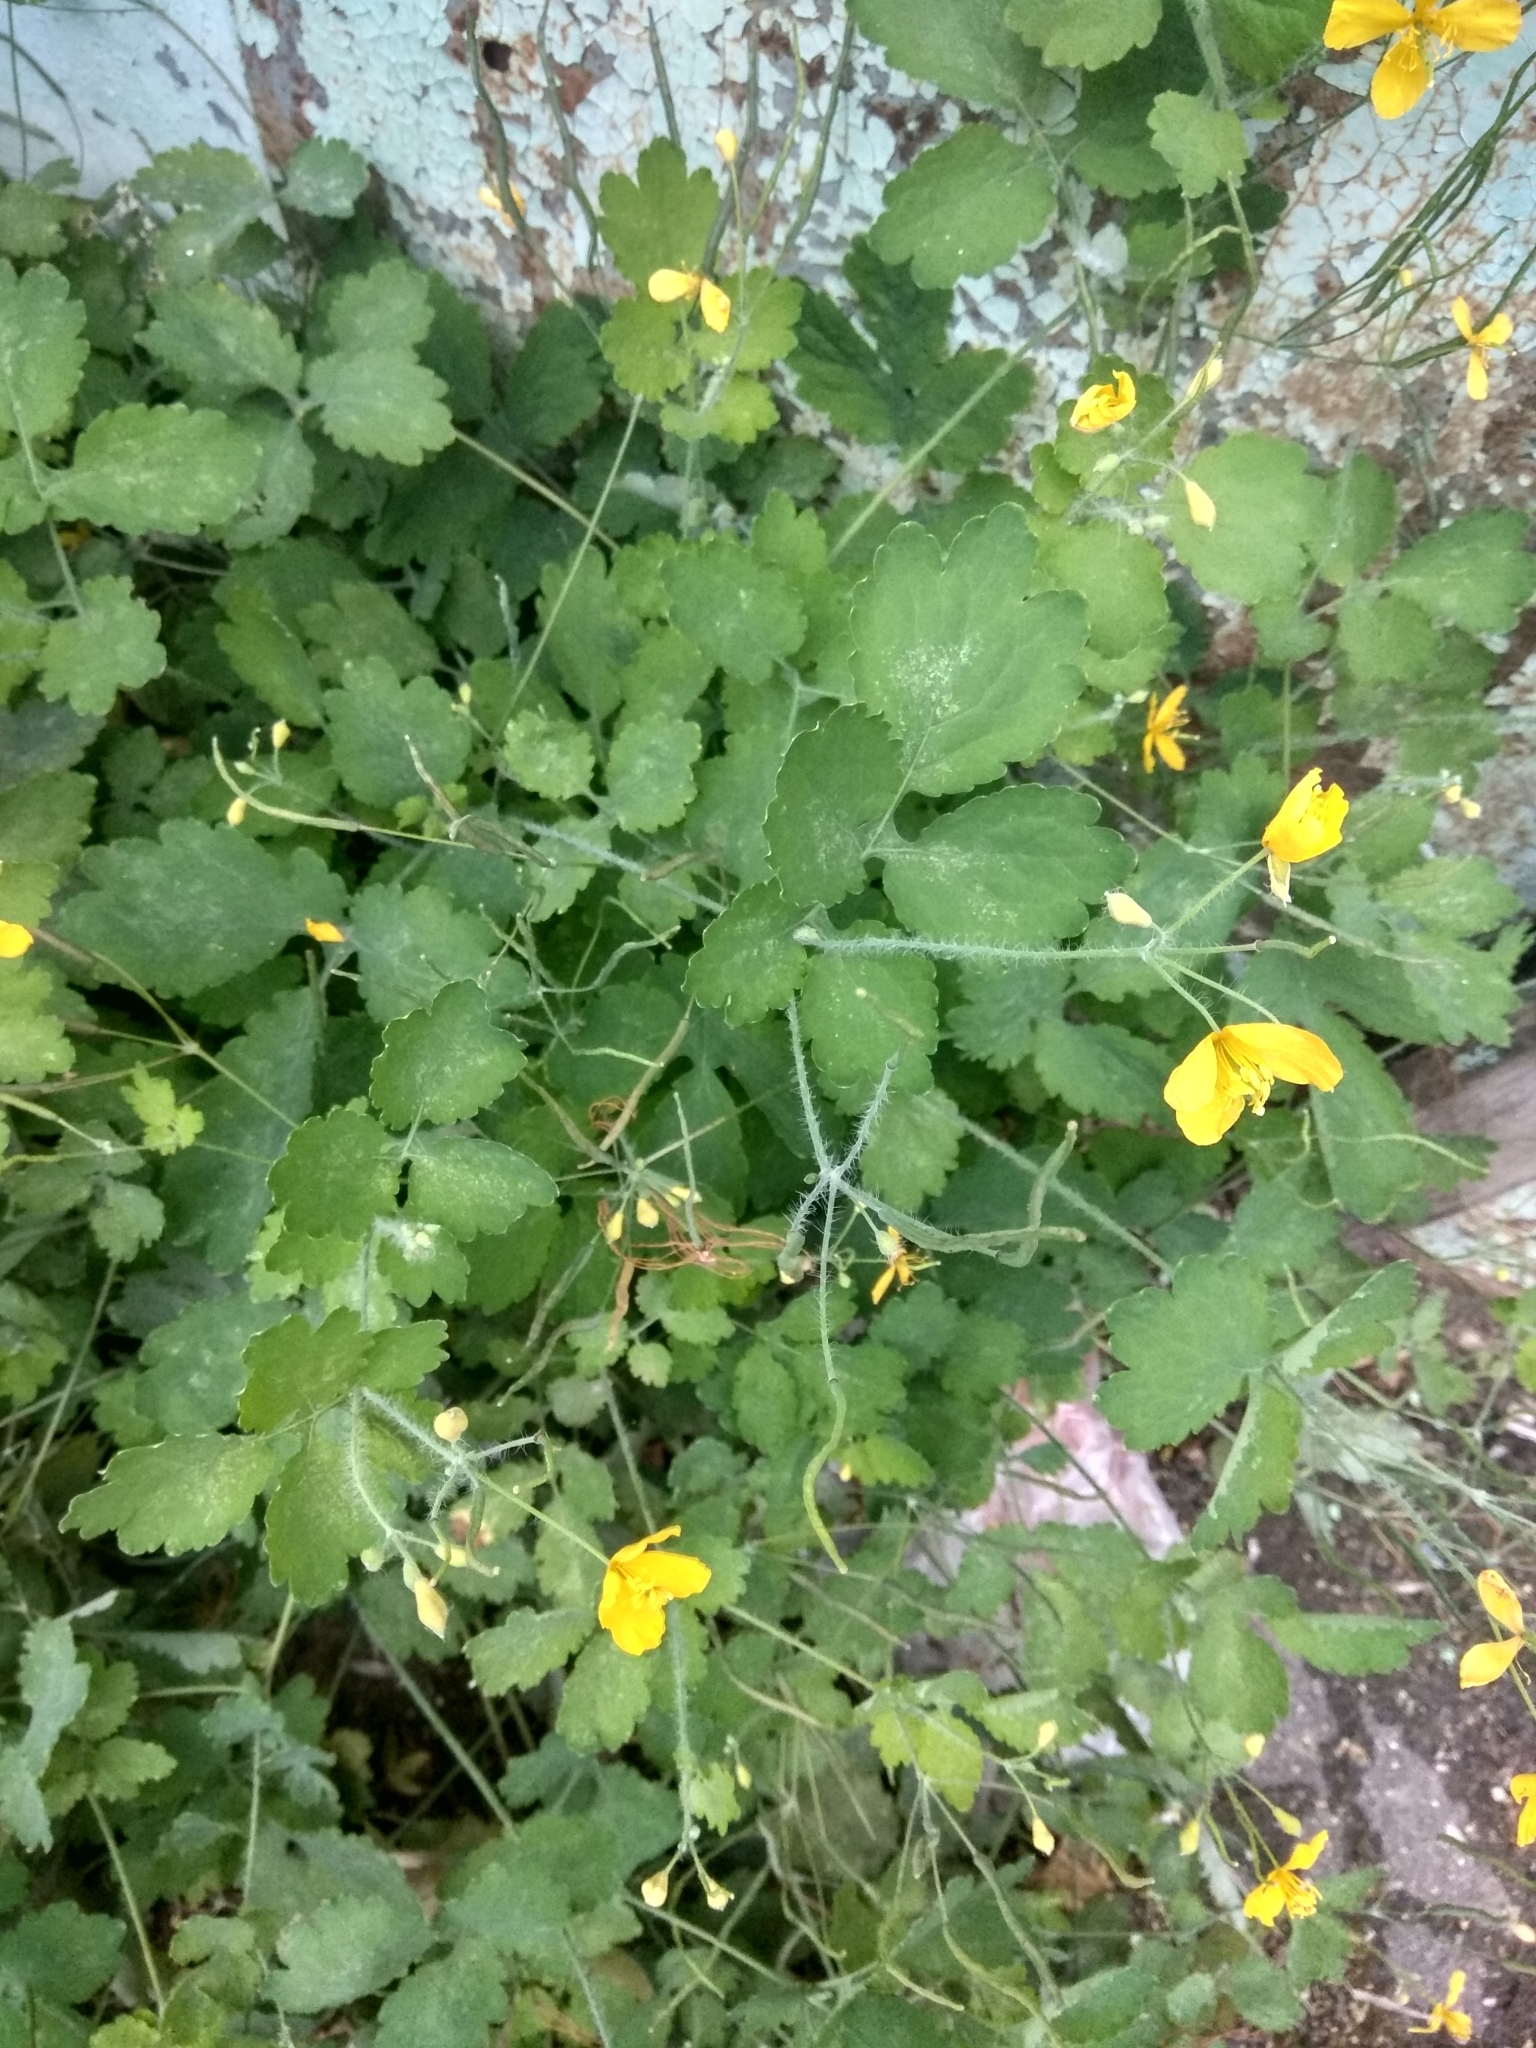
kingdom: Plantae
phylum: Tracheophyta
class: Magnoliopsida
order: Ranunculales
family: Papaveraceae
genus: Chelidonium
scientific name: Chelidonium majus
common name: Greater celandine
